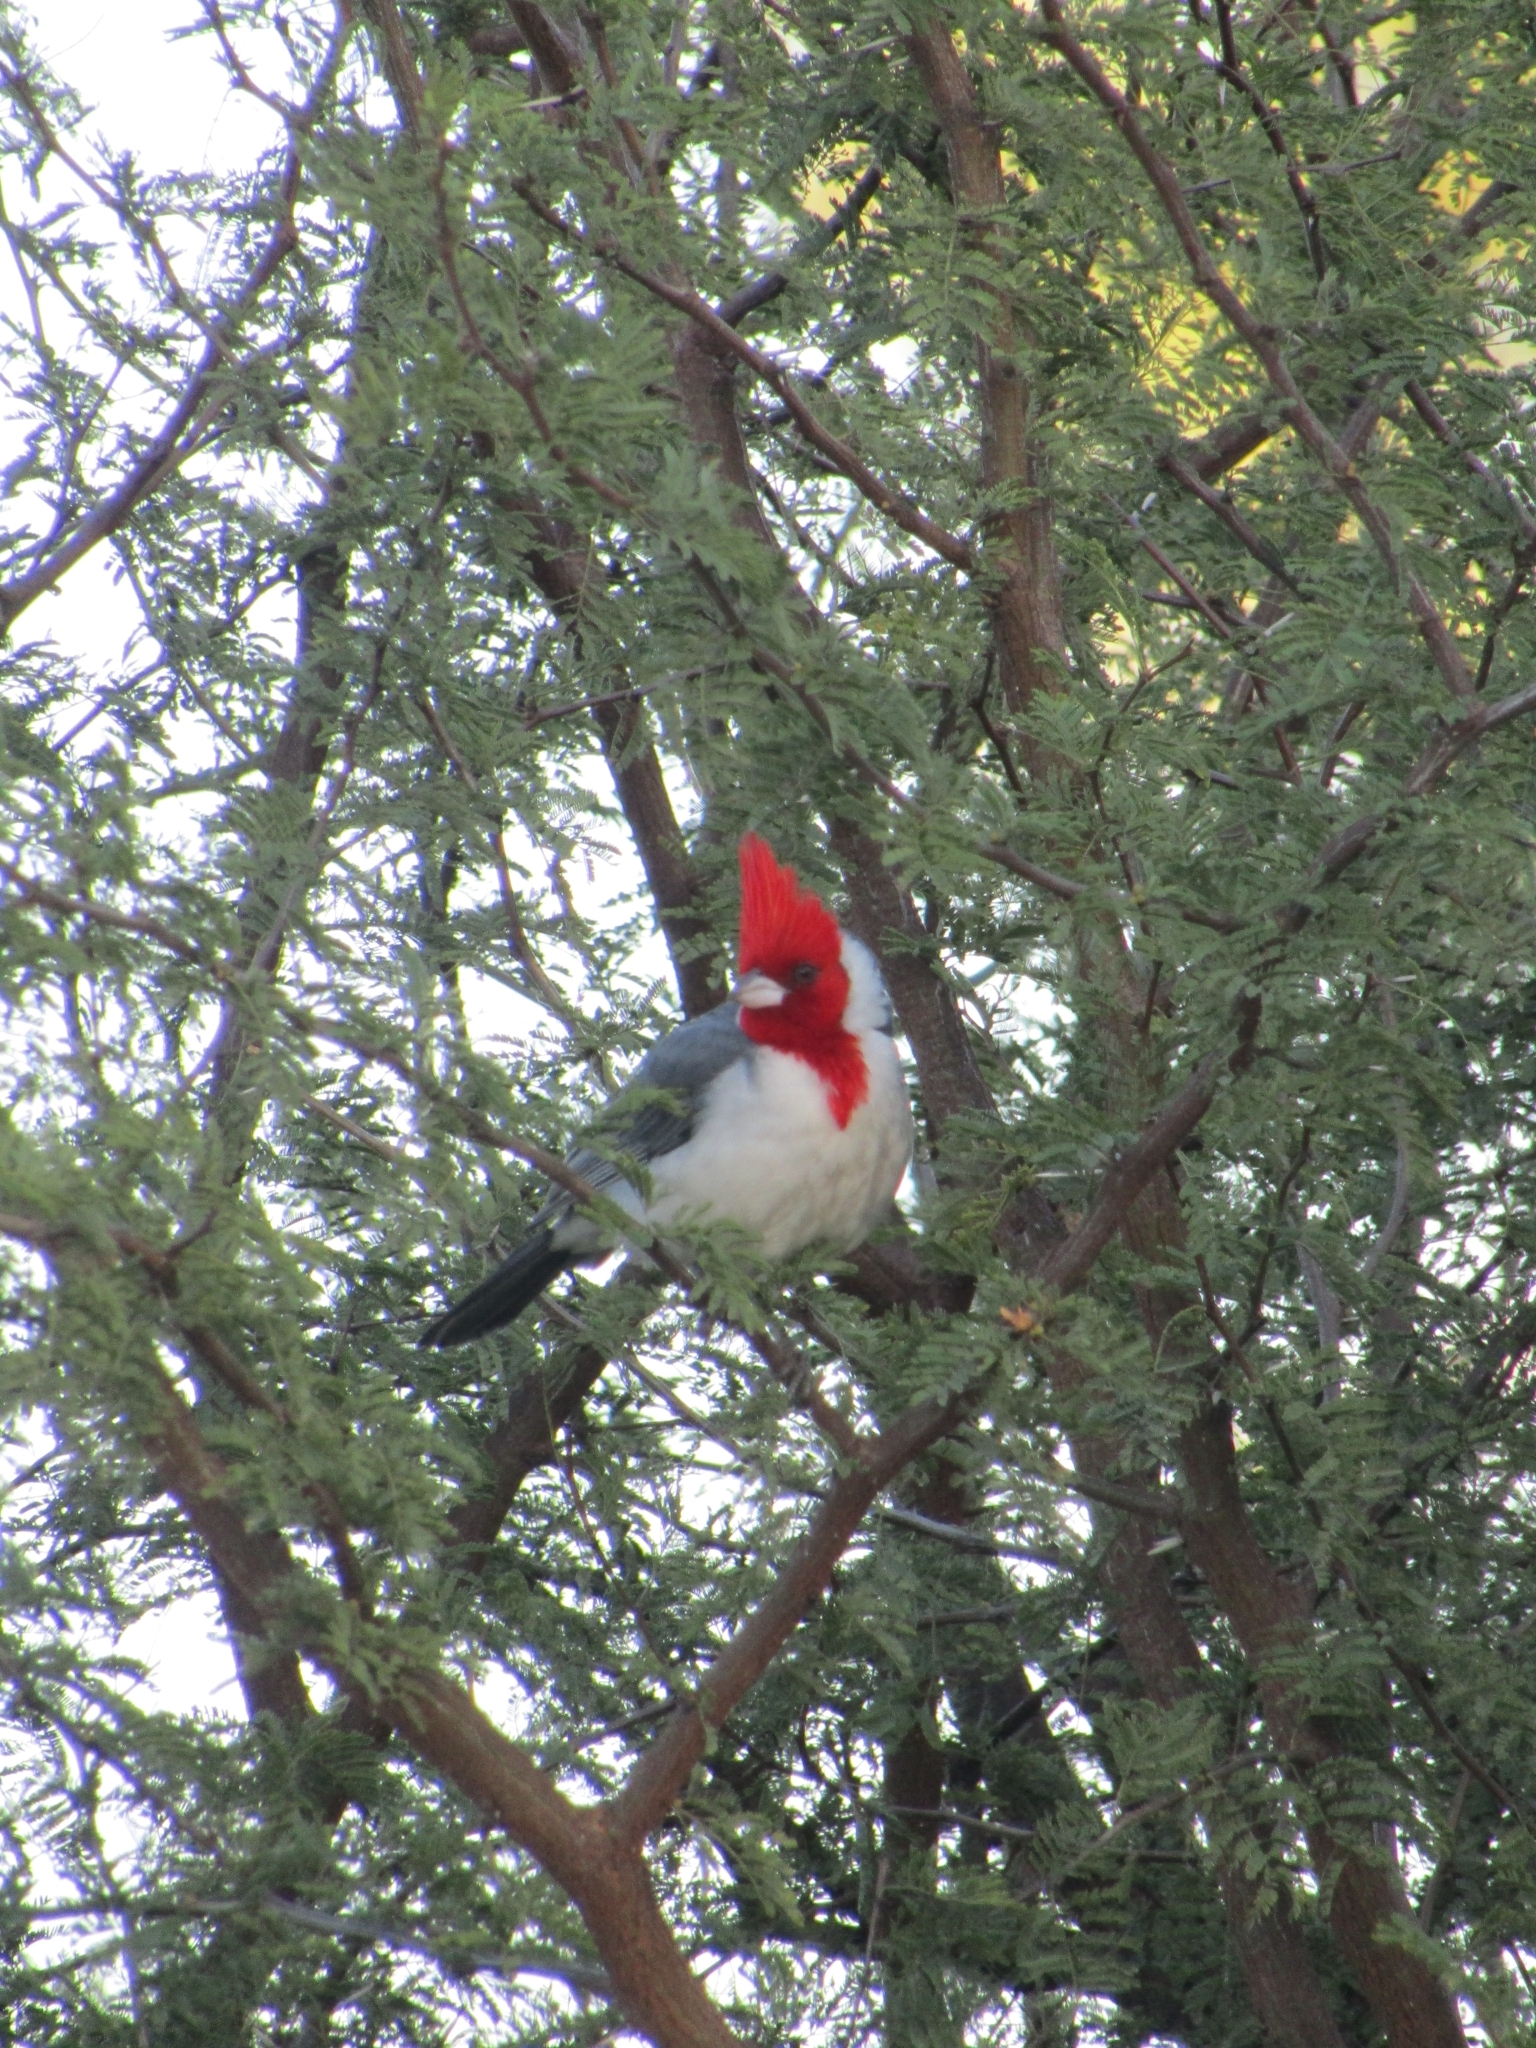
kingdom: Animalia
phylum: Chordata
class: Aves
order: Passeriformes
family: Thraupidae
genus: Paroaria
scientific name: Paroaria coronata
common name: Red-crested cardinal
